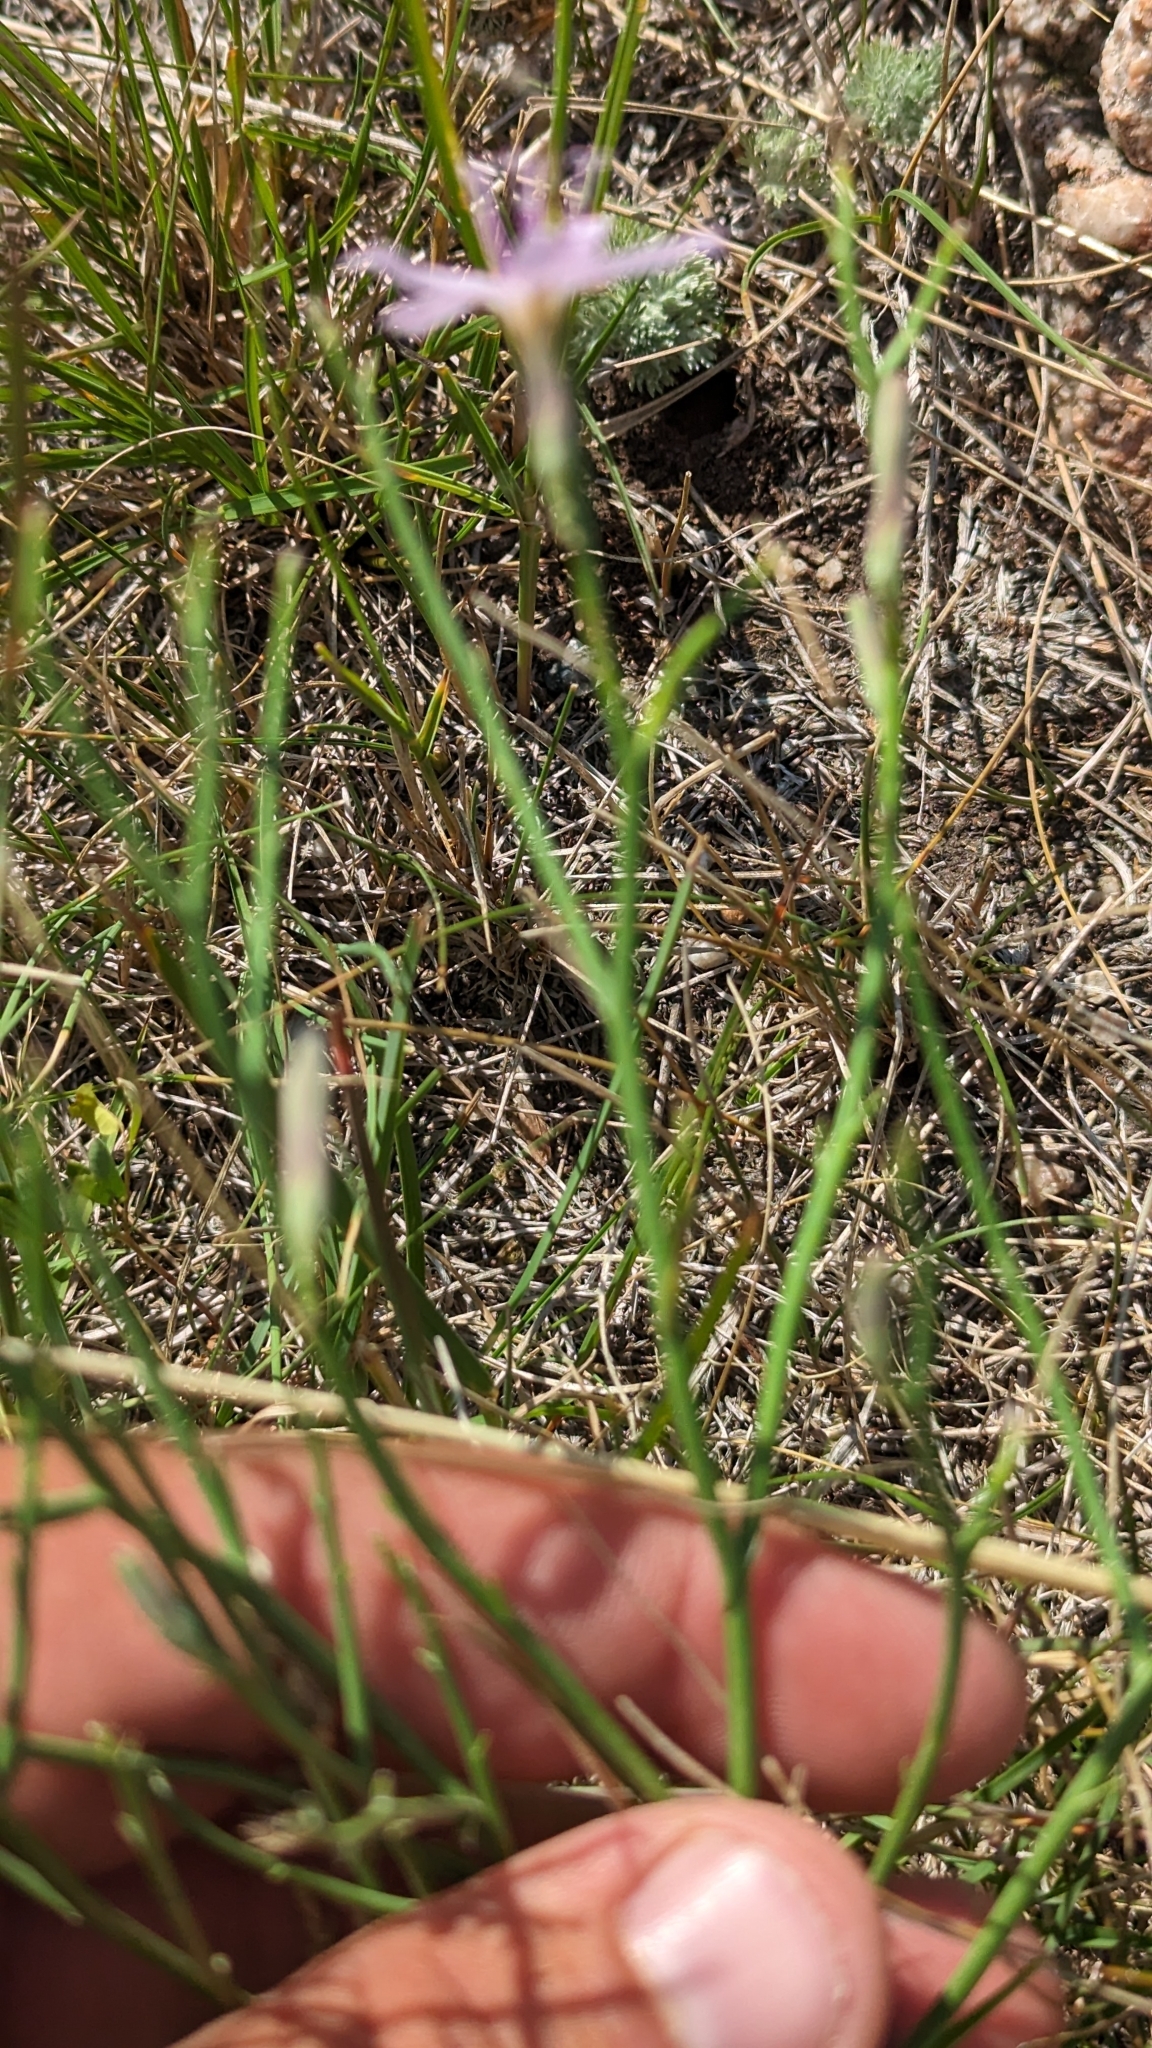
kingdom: Plantae
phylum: Tracheophyta
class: Magnoliopsida
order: Asterales
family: Asteraceae
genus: Lygodesmia
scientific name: Lygodesmia juncea
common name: Common skeletonweed
